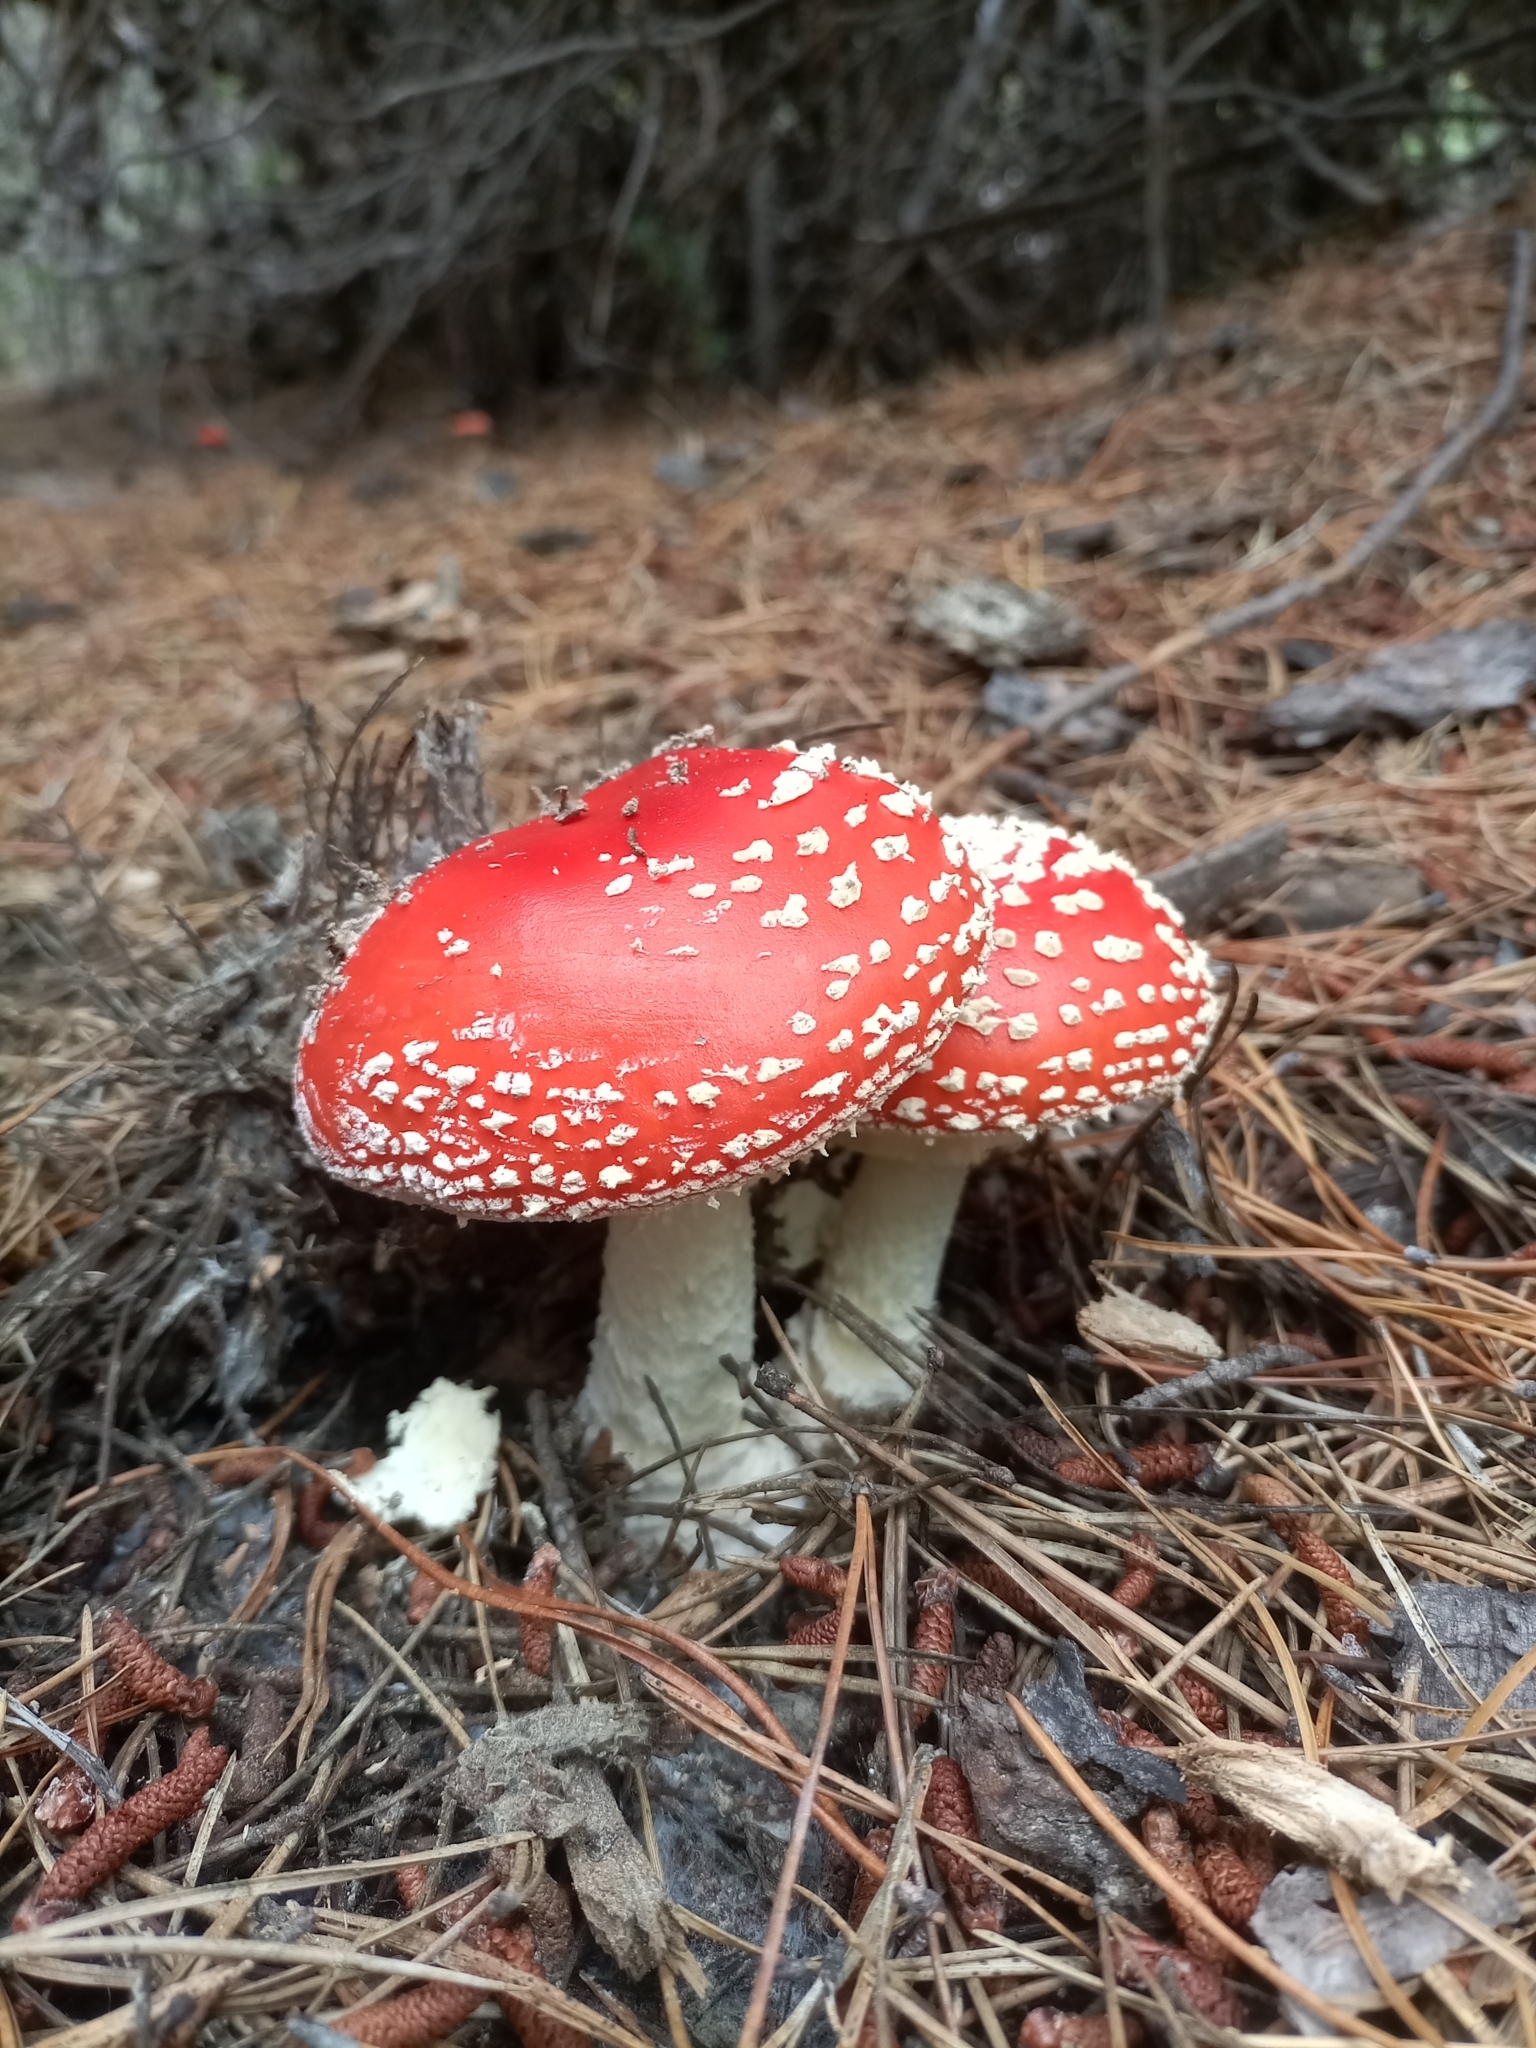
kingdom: Fungi
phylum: Basidiomycota
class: Agaricomycetes
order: Agaricales
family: Amanitaceae
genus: Amanita
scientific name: Amanita muscaria
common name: Fly agaric
